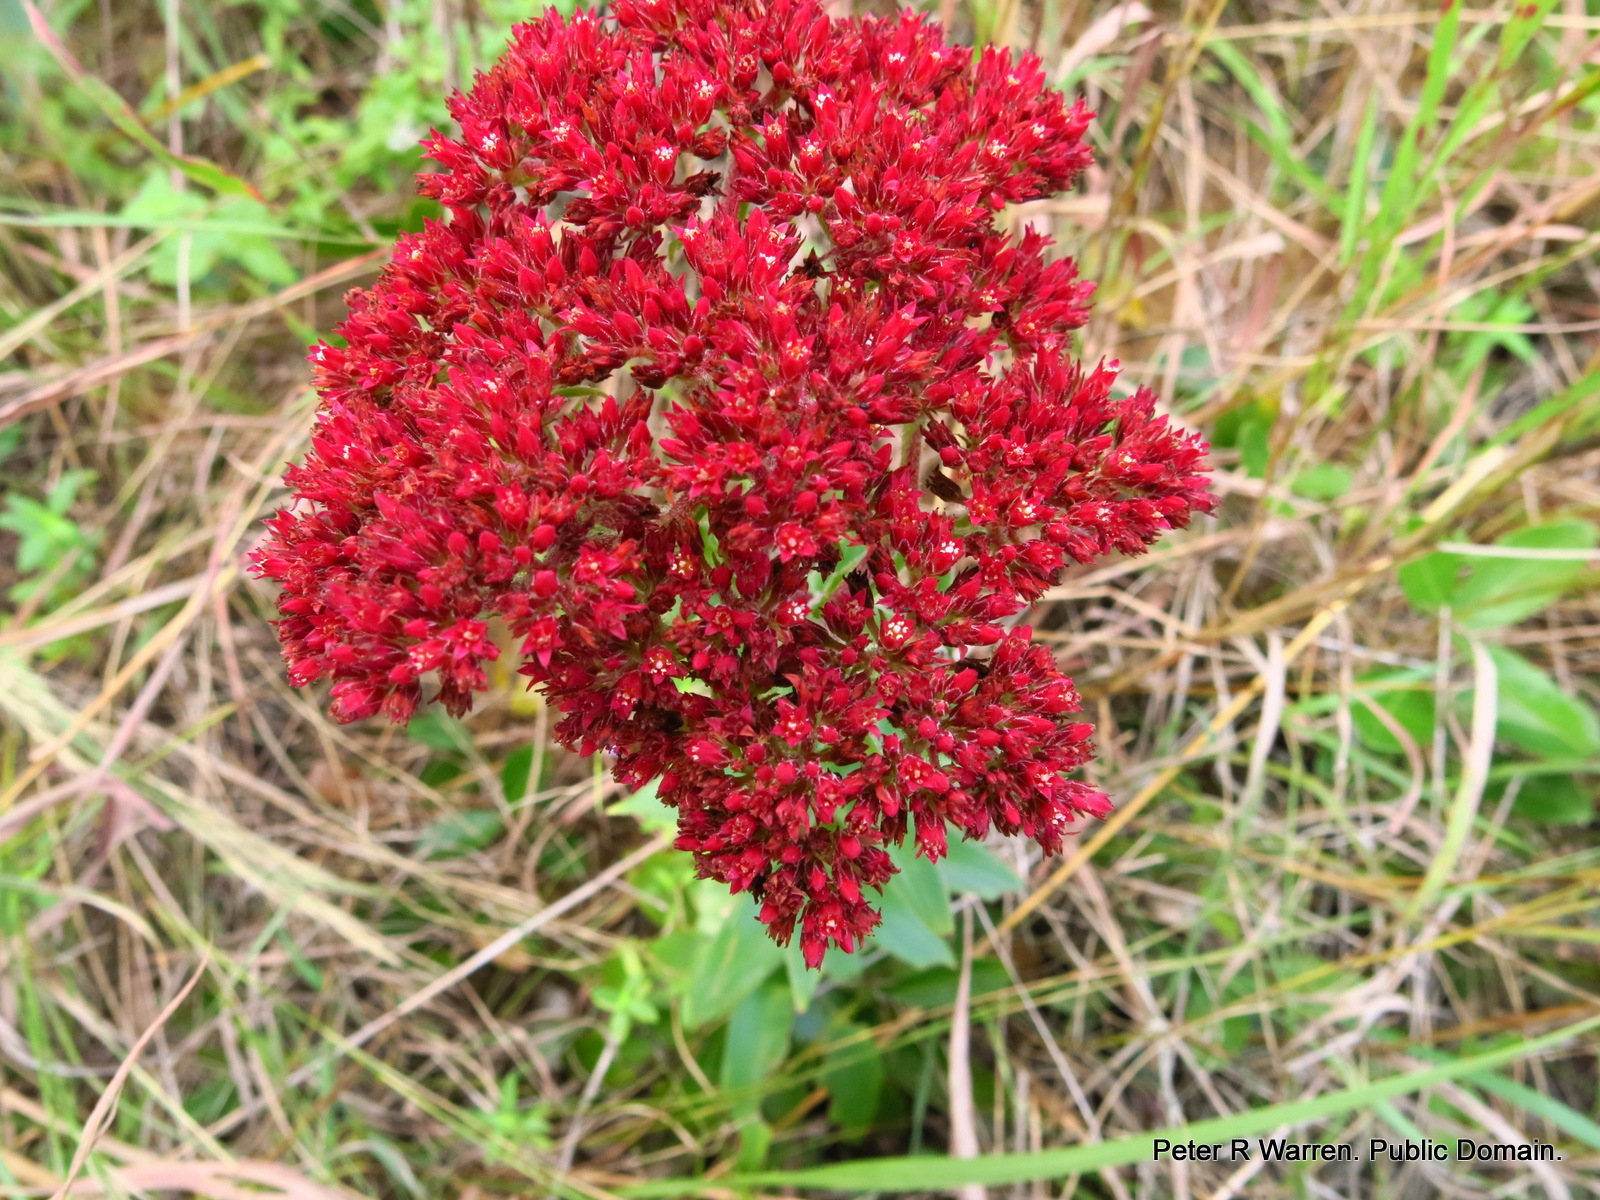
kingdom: Plantae
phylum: Tracheophyta
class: Magnoliopsida
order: Saxifragales
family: Crassulaceae
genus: Crassula
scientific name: Crassula alba
